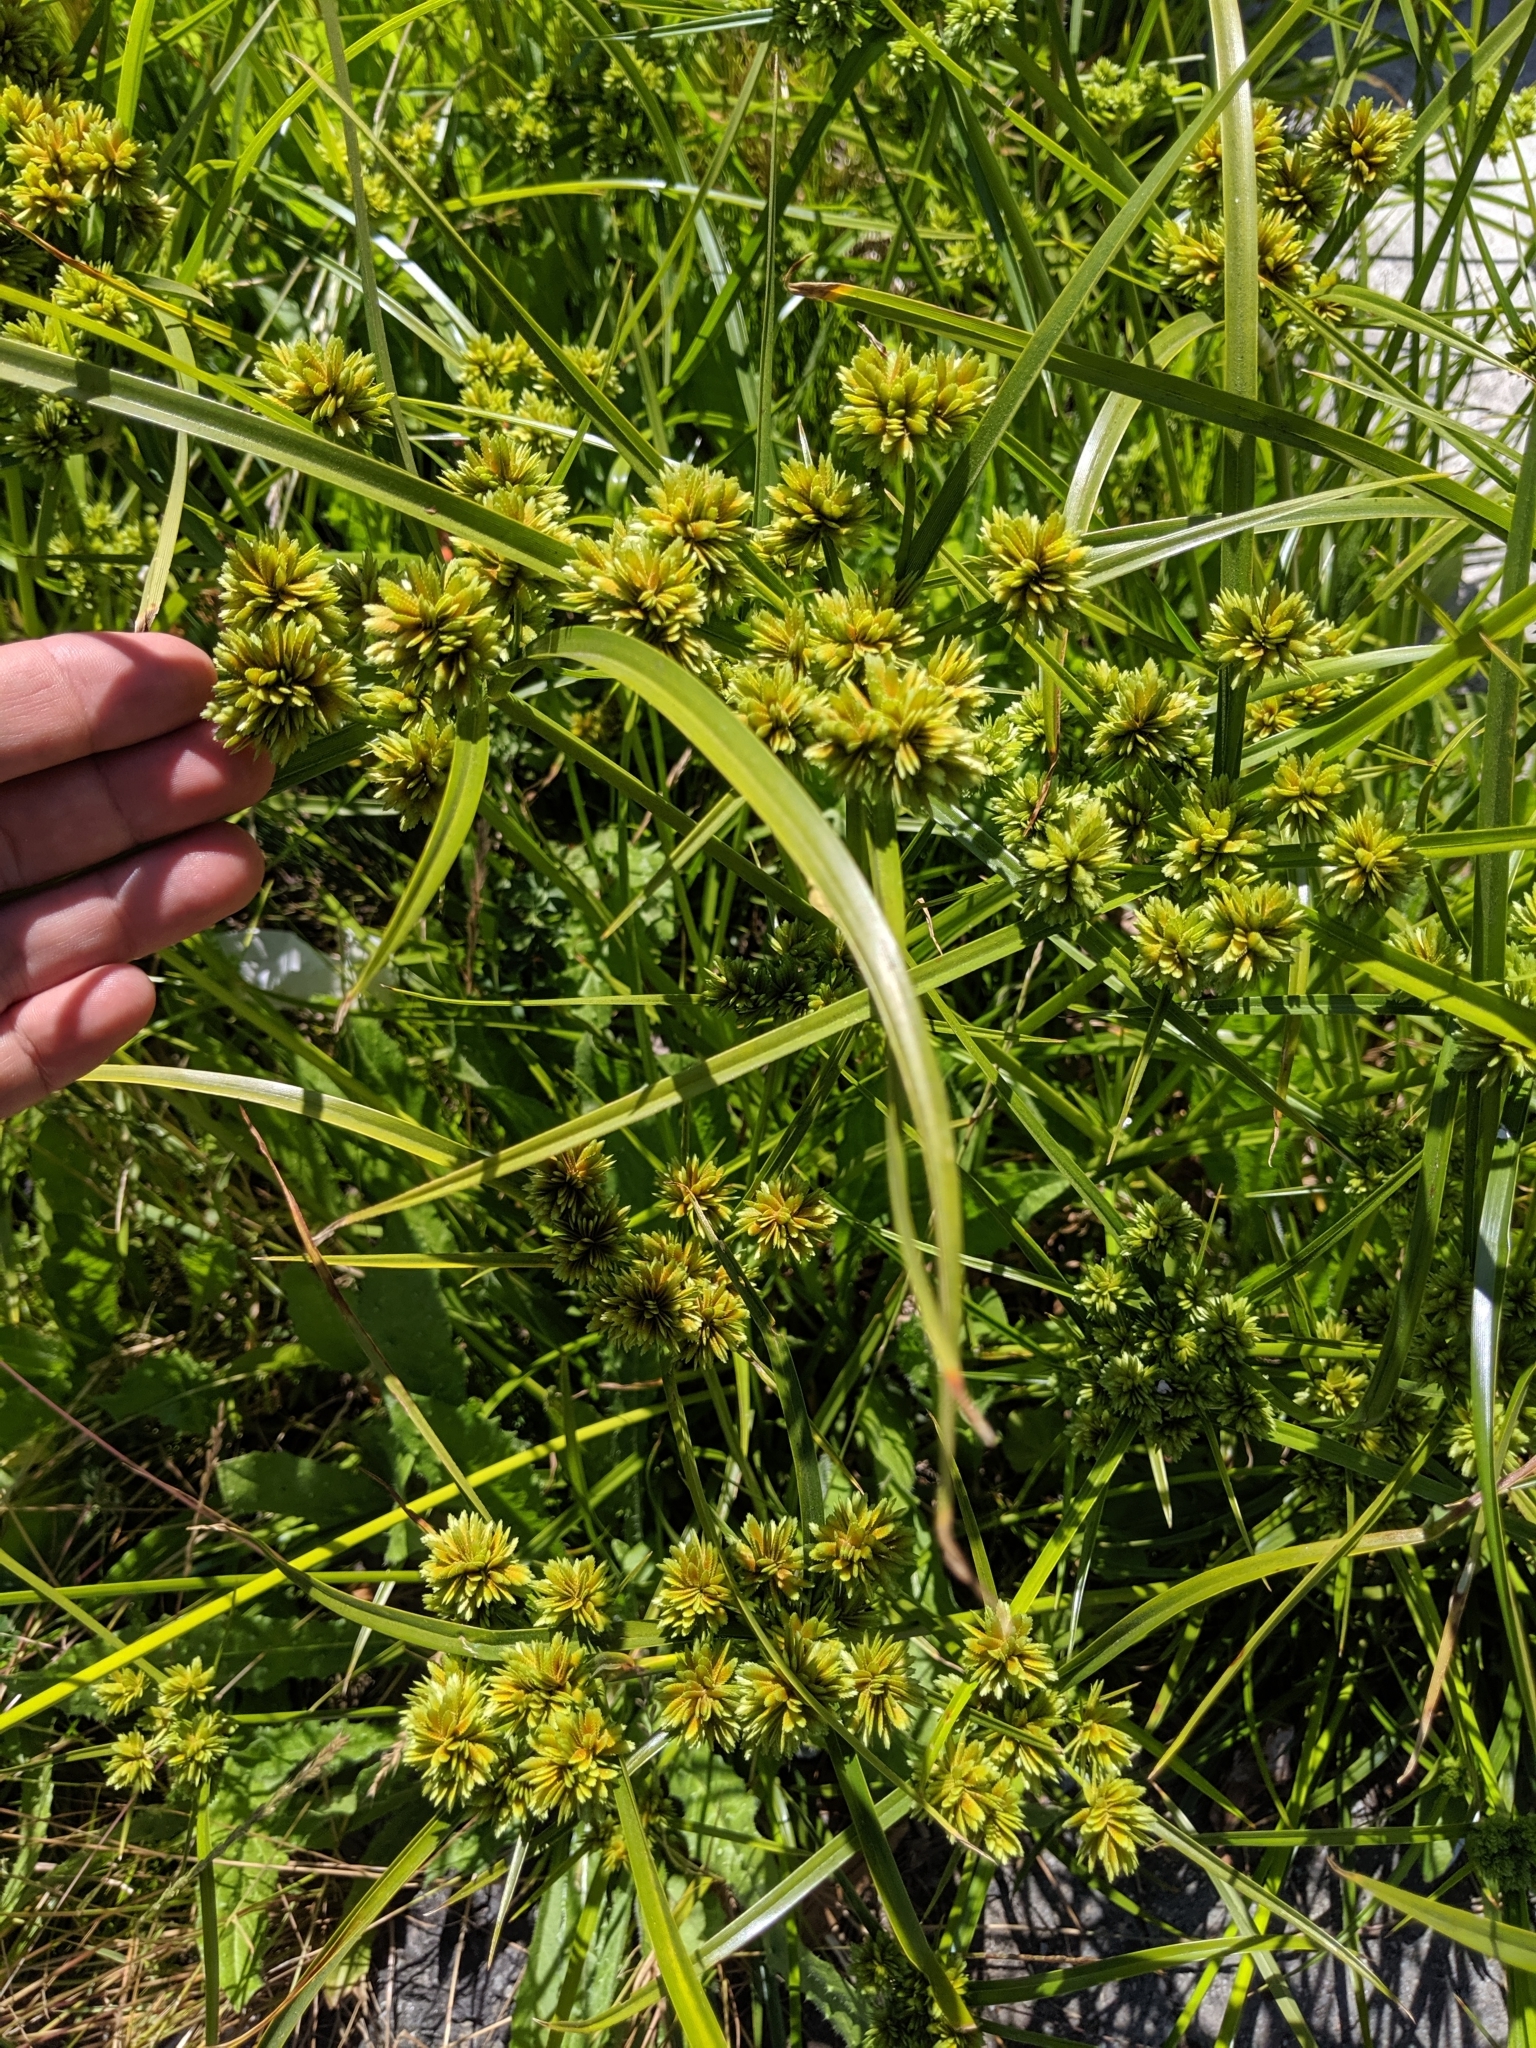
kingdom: Plantae
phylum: Tracheophyta
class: Liliopsida
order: Poales
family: Cyperaceae
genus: Cyperus
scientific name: Cyperus eragrostis
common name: Tall flatsedge
